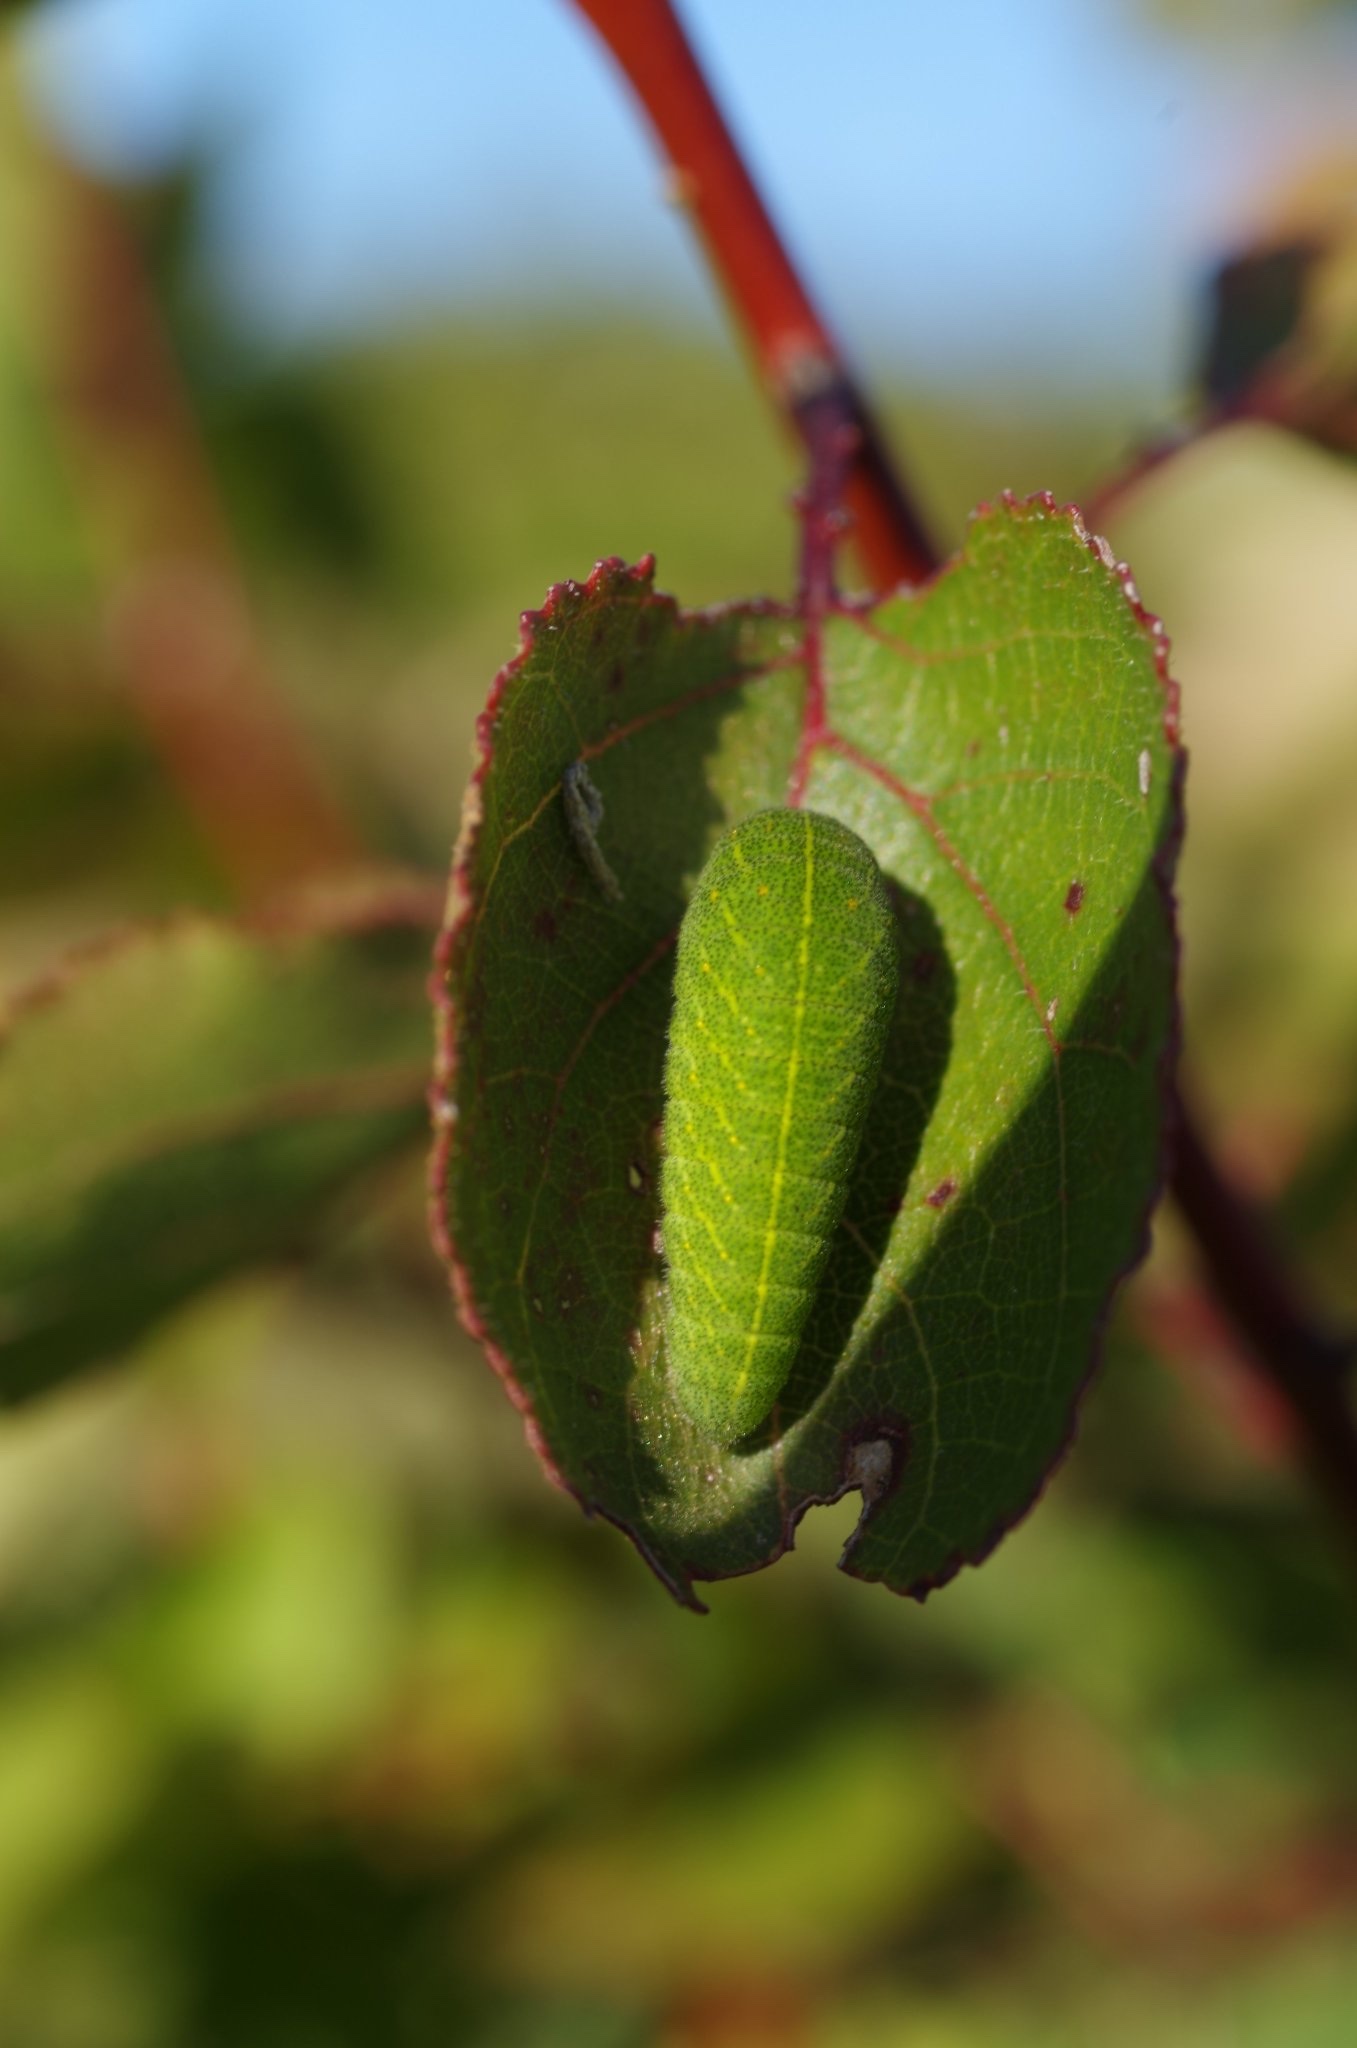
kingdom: Animalia
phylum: Arthropoda
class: Insecta
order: Lepidoptera
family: Papilionidae
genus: Iphiclides
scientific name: Iphiclides podalirius
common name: Scarce swallowtail
